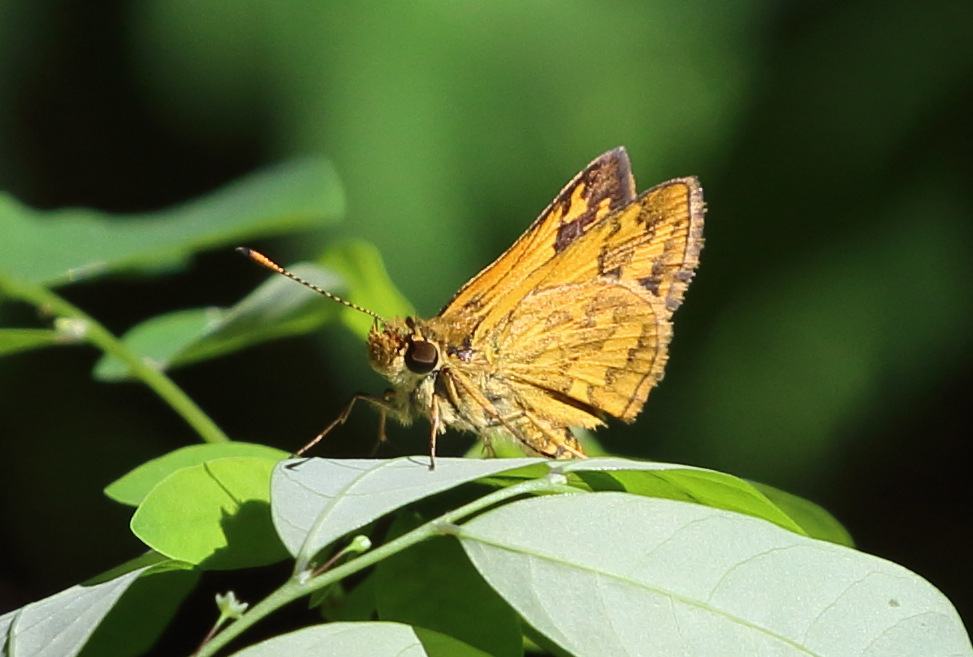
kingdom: Animalia
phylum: Arthropoda
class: Insecta
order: Lepidoptera
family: Hesperiidae
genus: Ocybadistes
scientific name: Ocybadistes walkeri
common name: Yellow-banded dart
